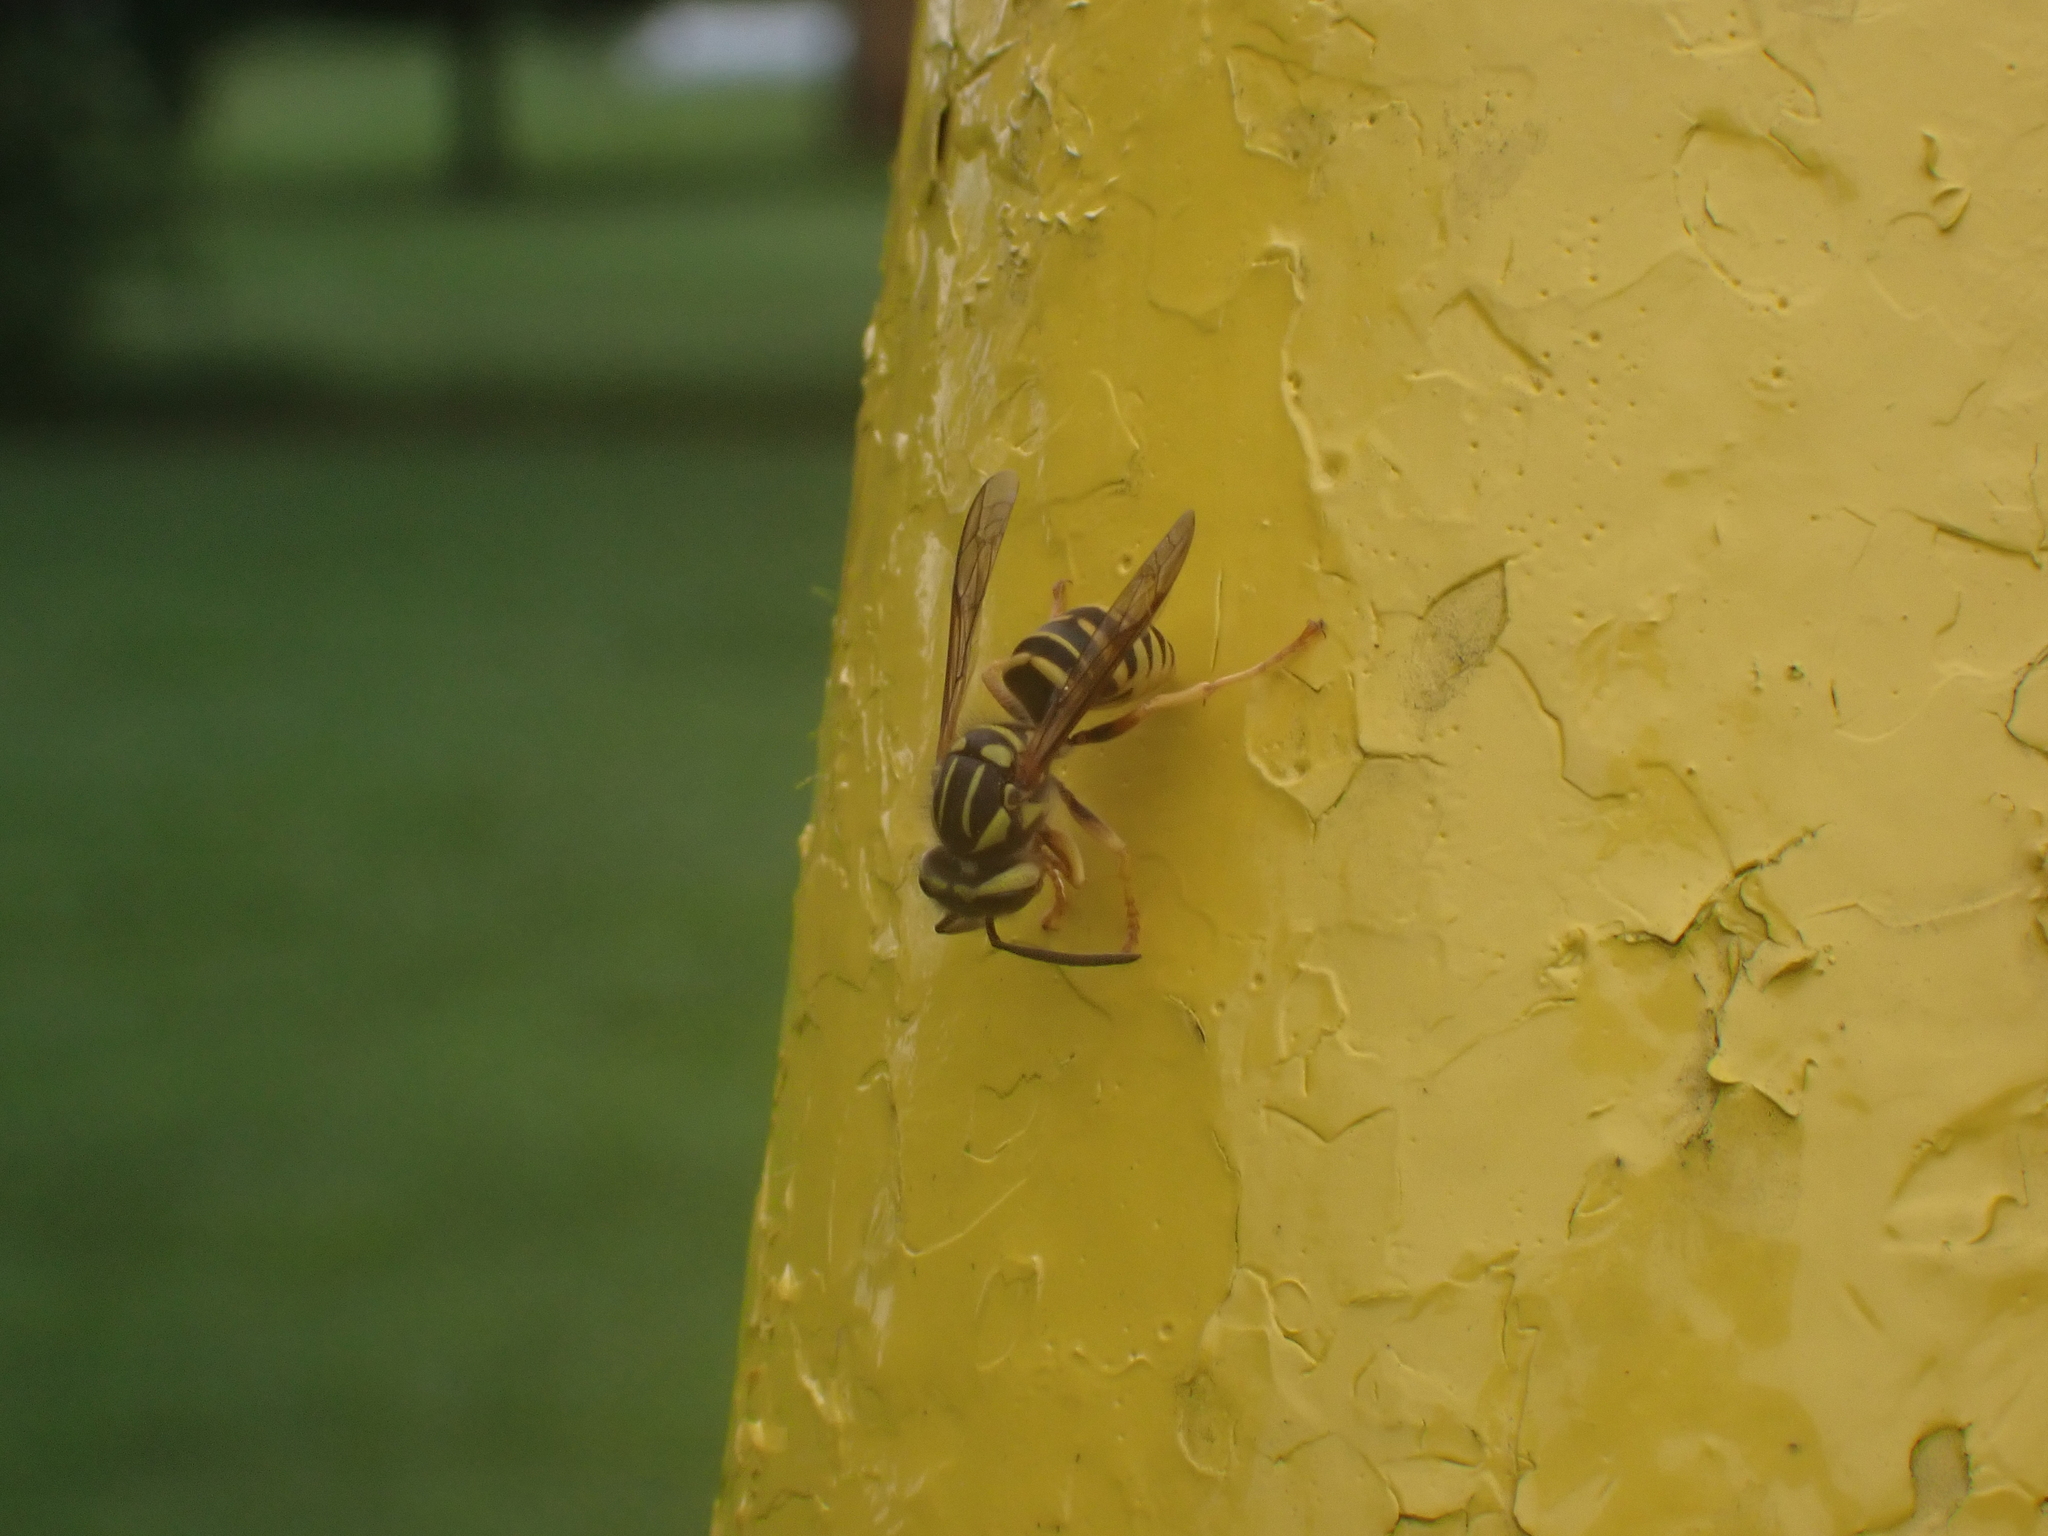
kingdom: Animalia
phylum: Arthropoda
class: Insecta
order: Hymenoptera
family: Vespidae
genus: Vespula
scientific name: Vespula squamosa
